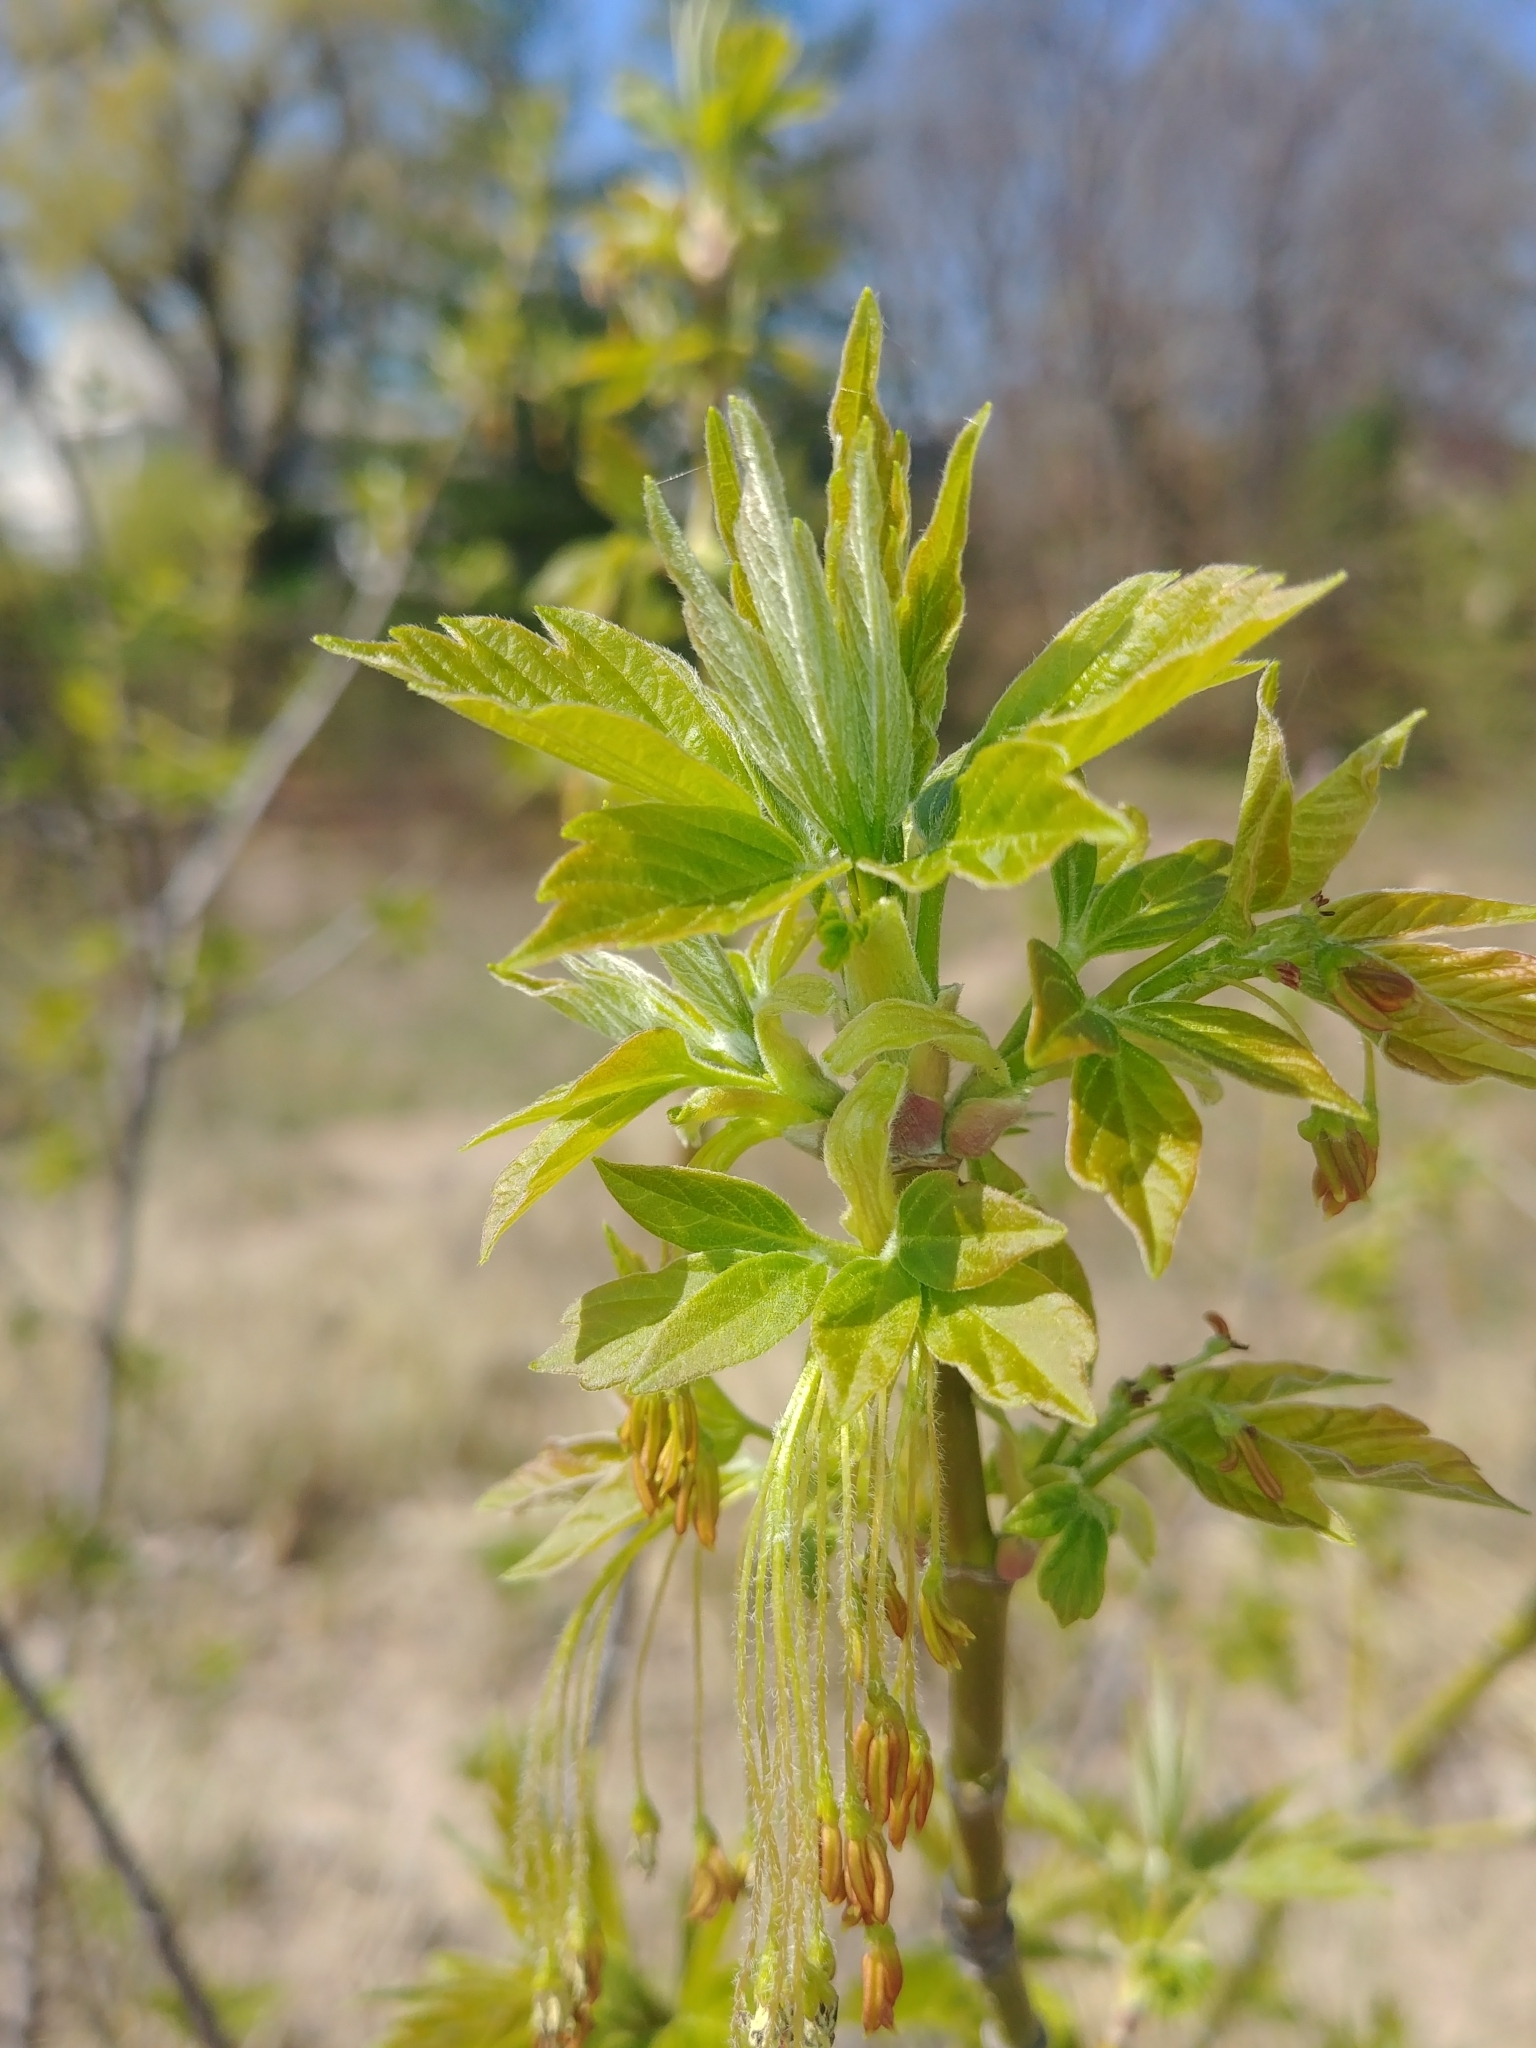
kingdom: Plantae
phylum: Tracheophyta
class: Magnoliopsida
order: Sapindales
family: Sapindaceae
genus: Acer
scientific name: Acer negundo
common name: Ashleaf maple
